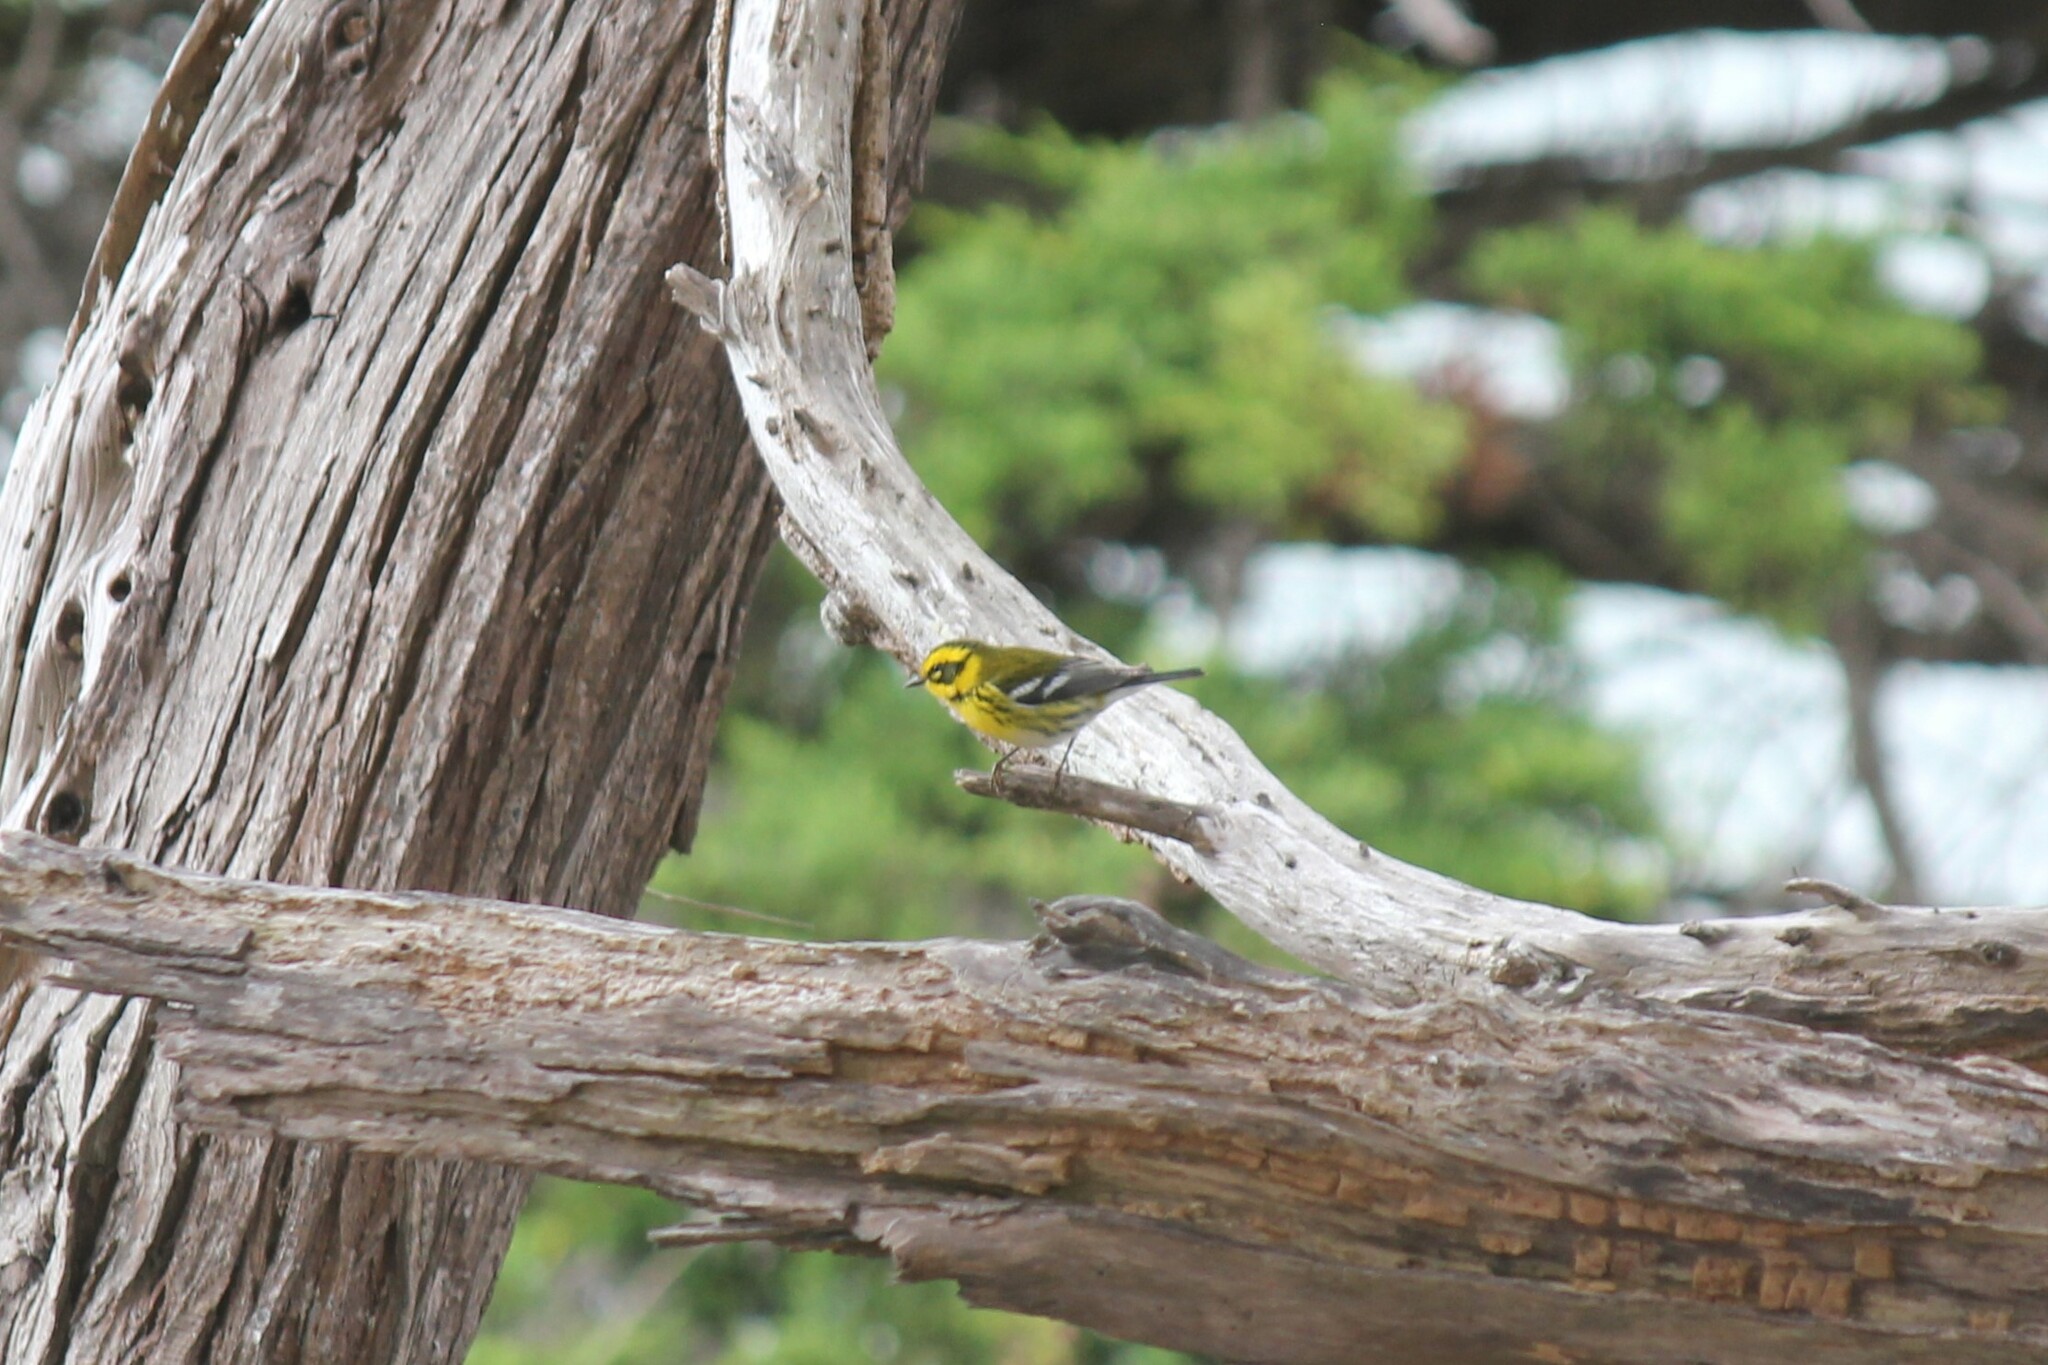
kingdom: Animalia
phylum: Chordata
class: Aves
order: Passeriformes
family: Parulidae
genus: Setophaga
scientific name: Setophaga townsendi
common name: Townsend's warbler
